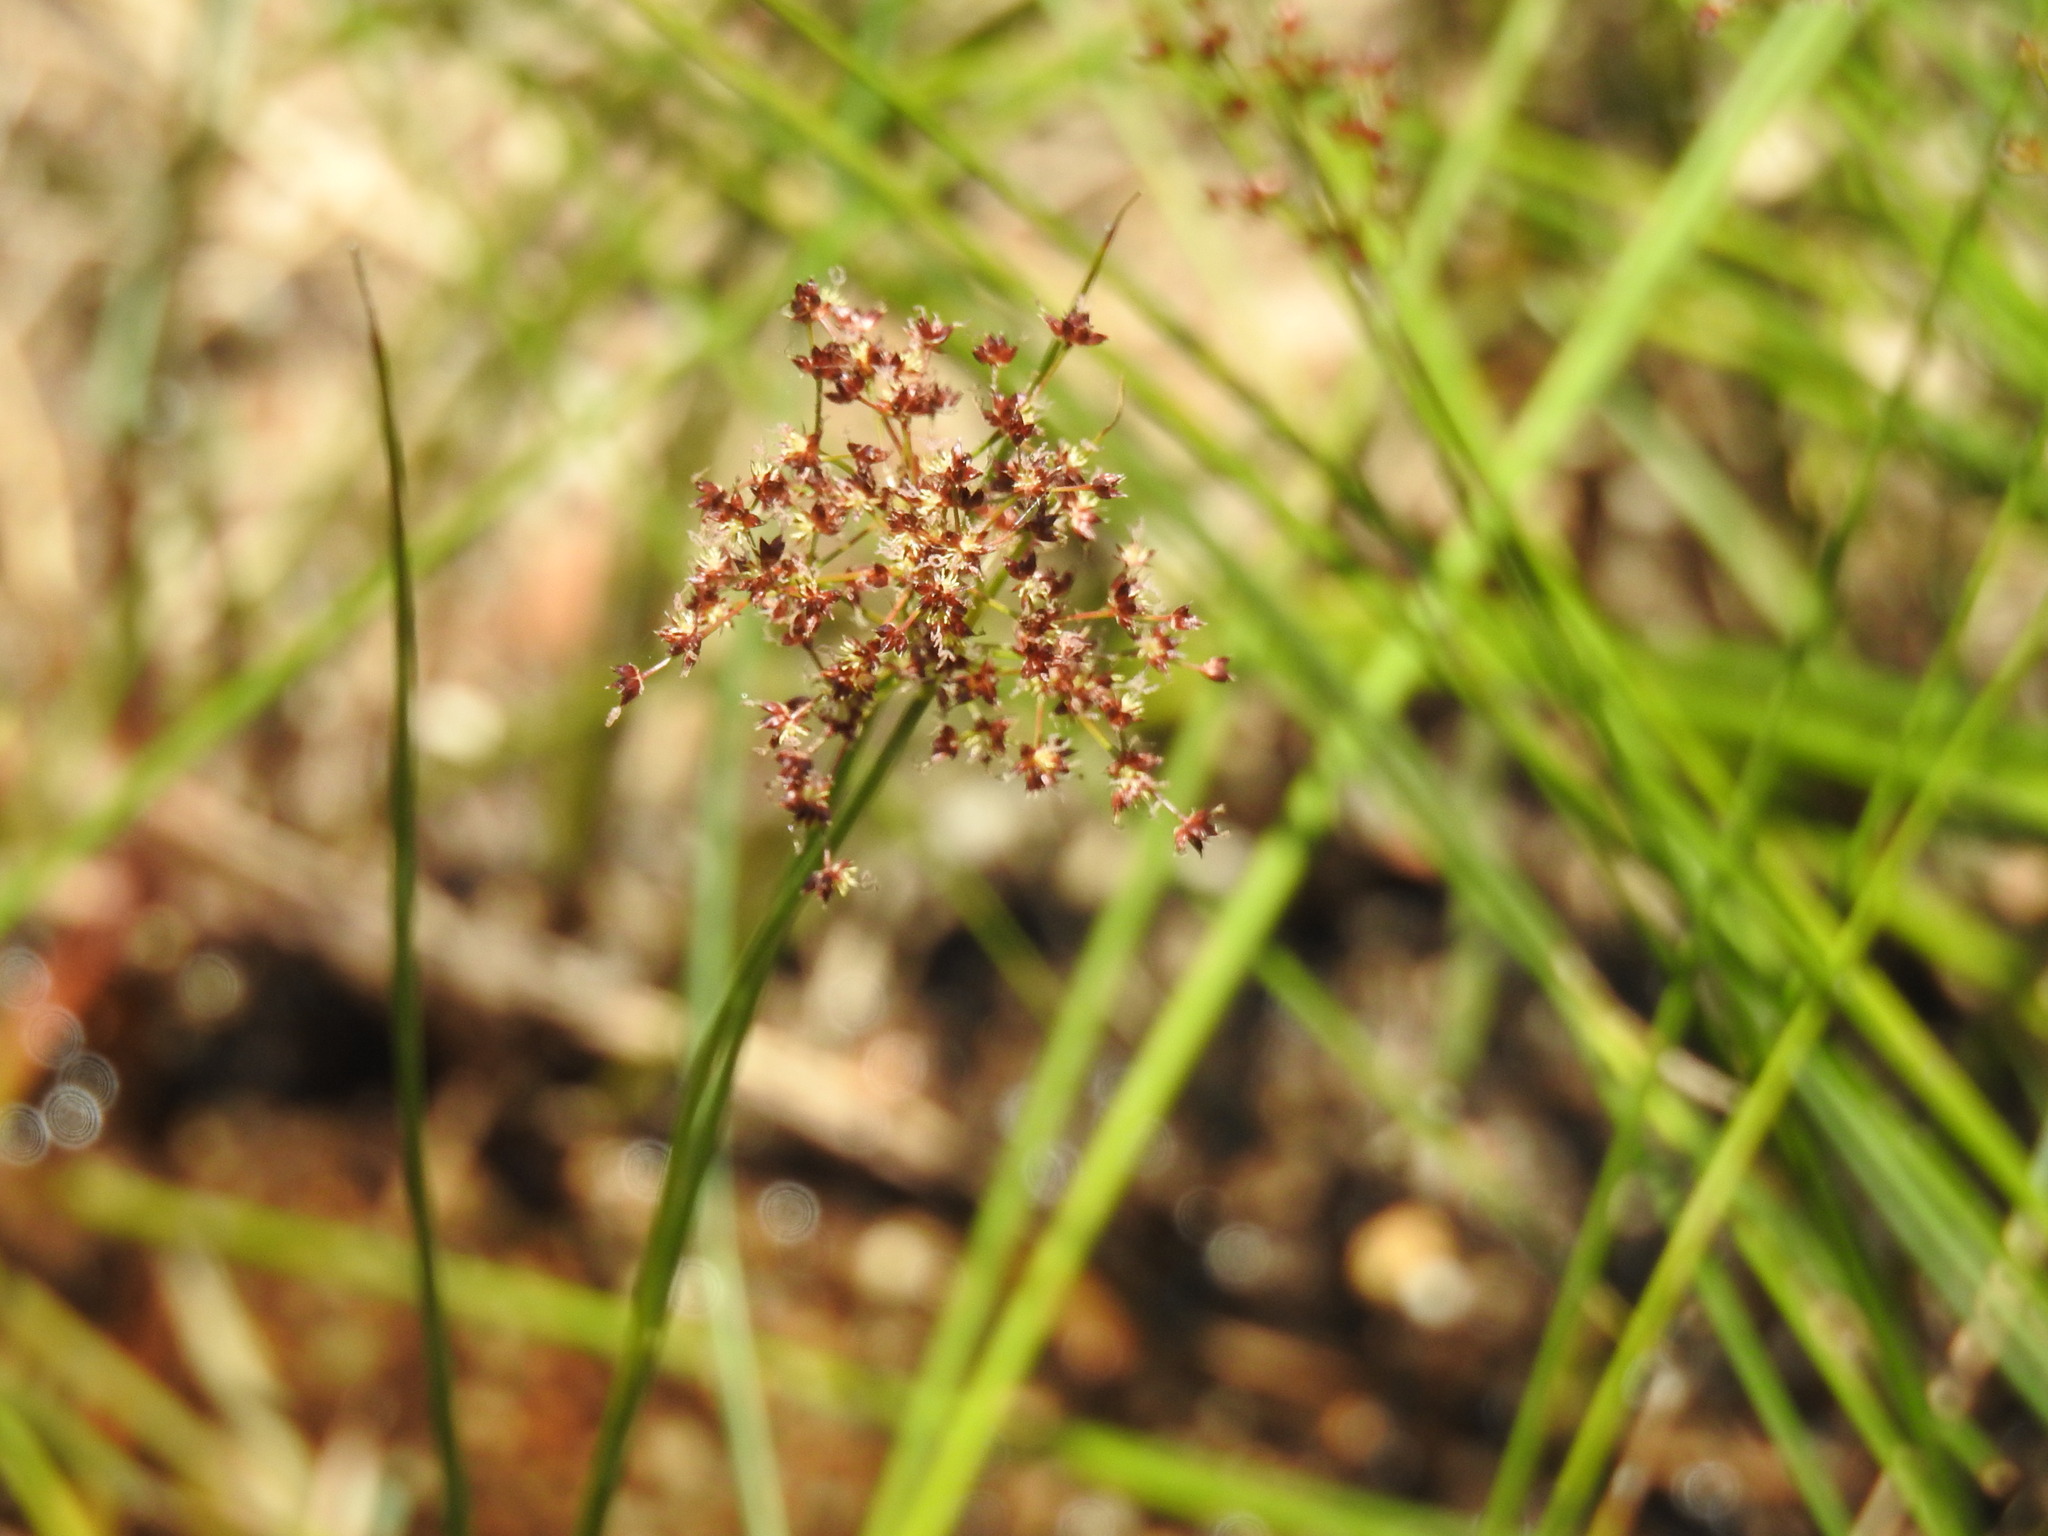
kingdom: Plantae
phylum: Tracheophyta
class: Liliopsida
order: Poales
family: Juncaceae
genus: Juncus
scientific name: Juncus acutiflorus
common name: Sharp-flowered rush
